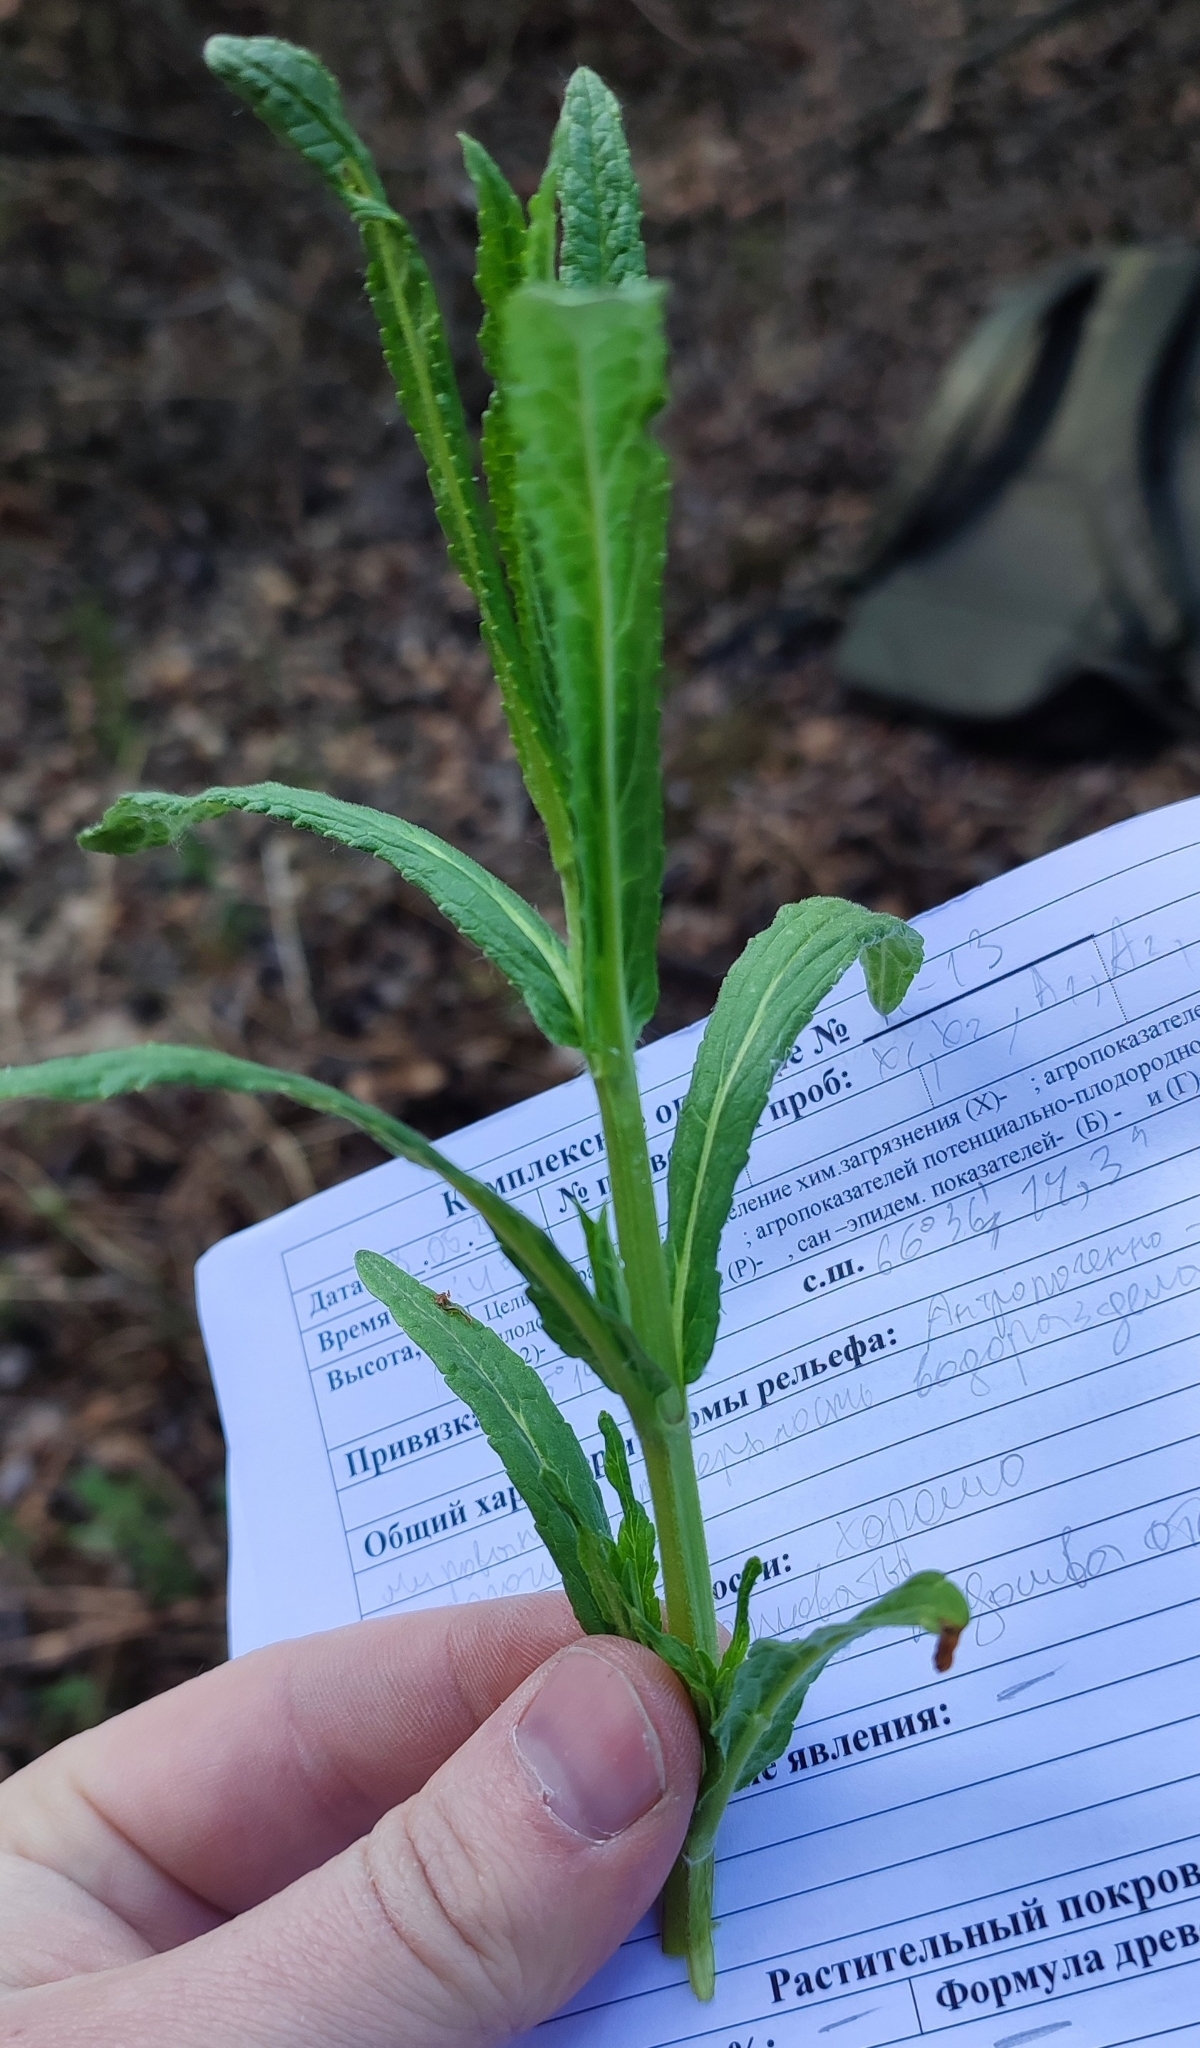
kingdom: Plantae
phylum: Tracheophyta
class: Magnoliopsida
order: Lamiales
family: Lamiaceae
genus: Stachys
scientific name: Stachys palustris
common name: Marsh woundwort
